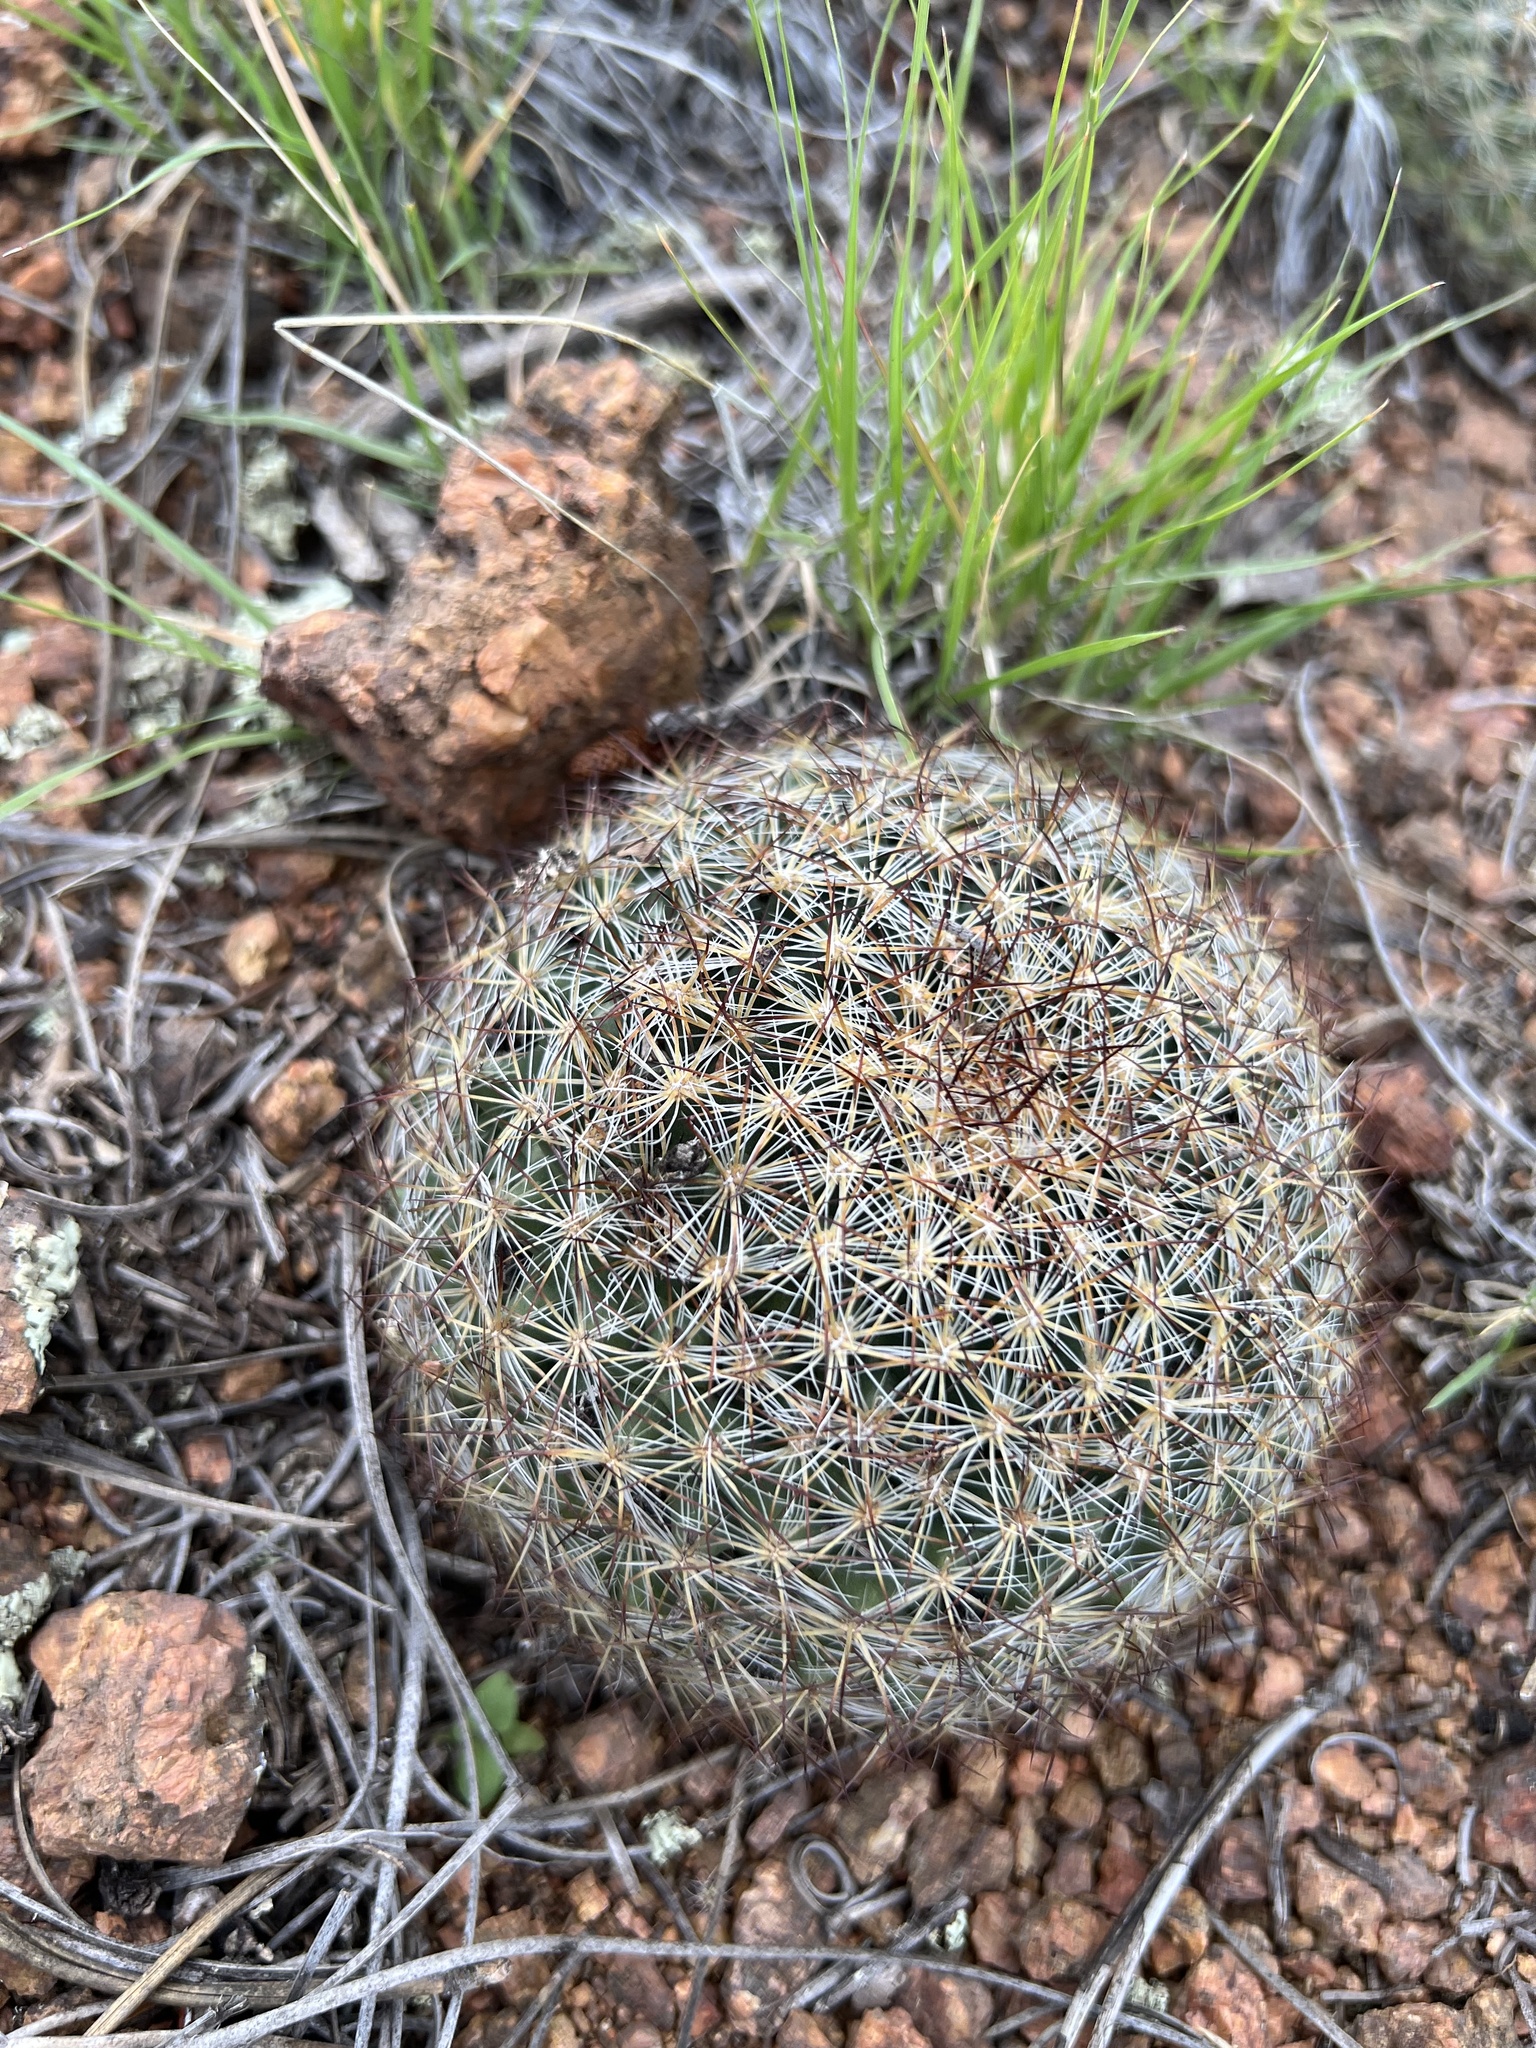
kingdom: Plantae
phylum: Tracheophyta
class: Magnoliopsida
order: Caryophyllales
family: Cactaceae
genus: Pediocactus
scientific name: Pediocactus simpsonii
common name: Simpson's hedgehog cactus
